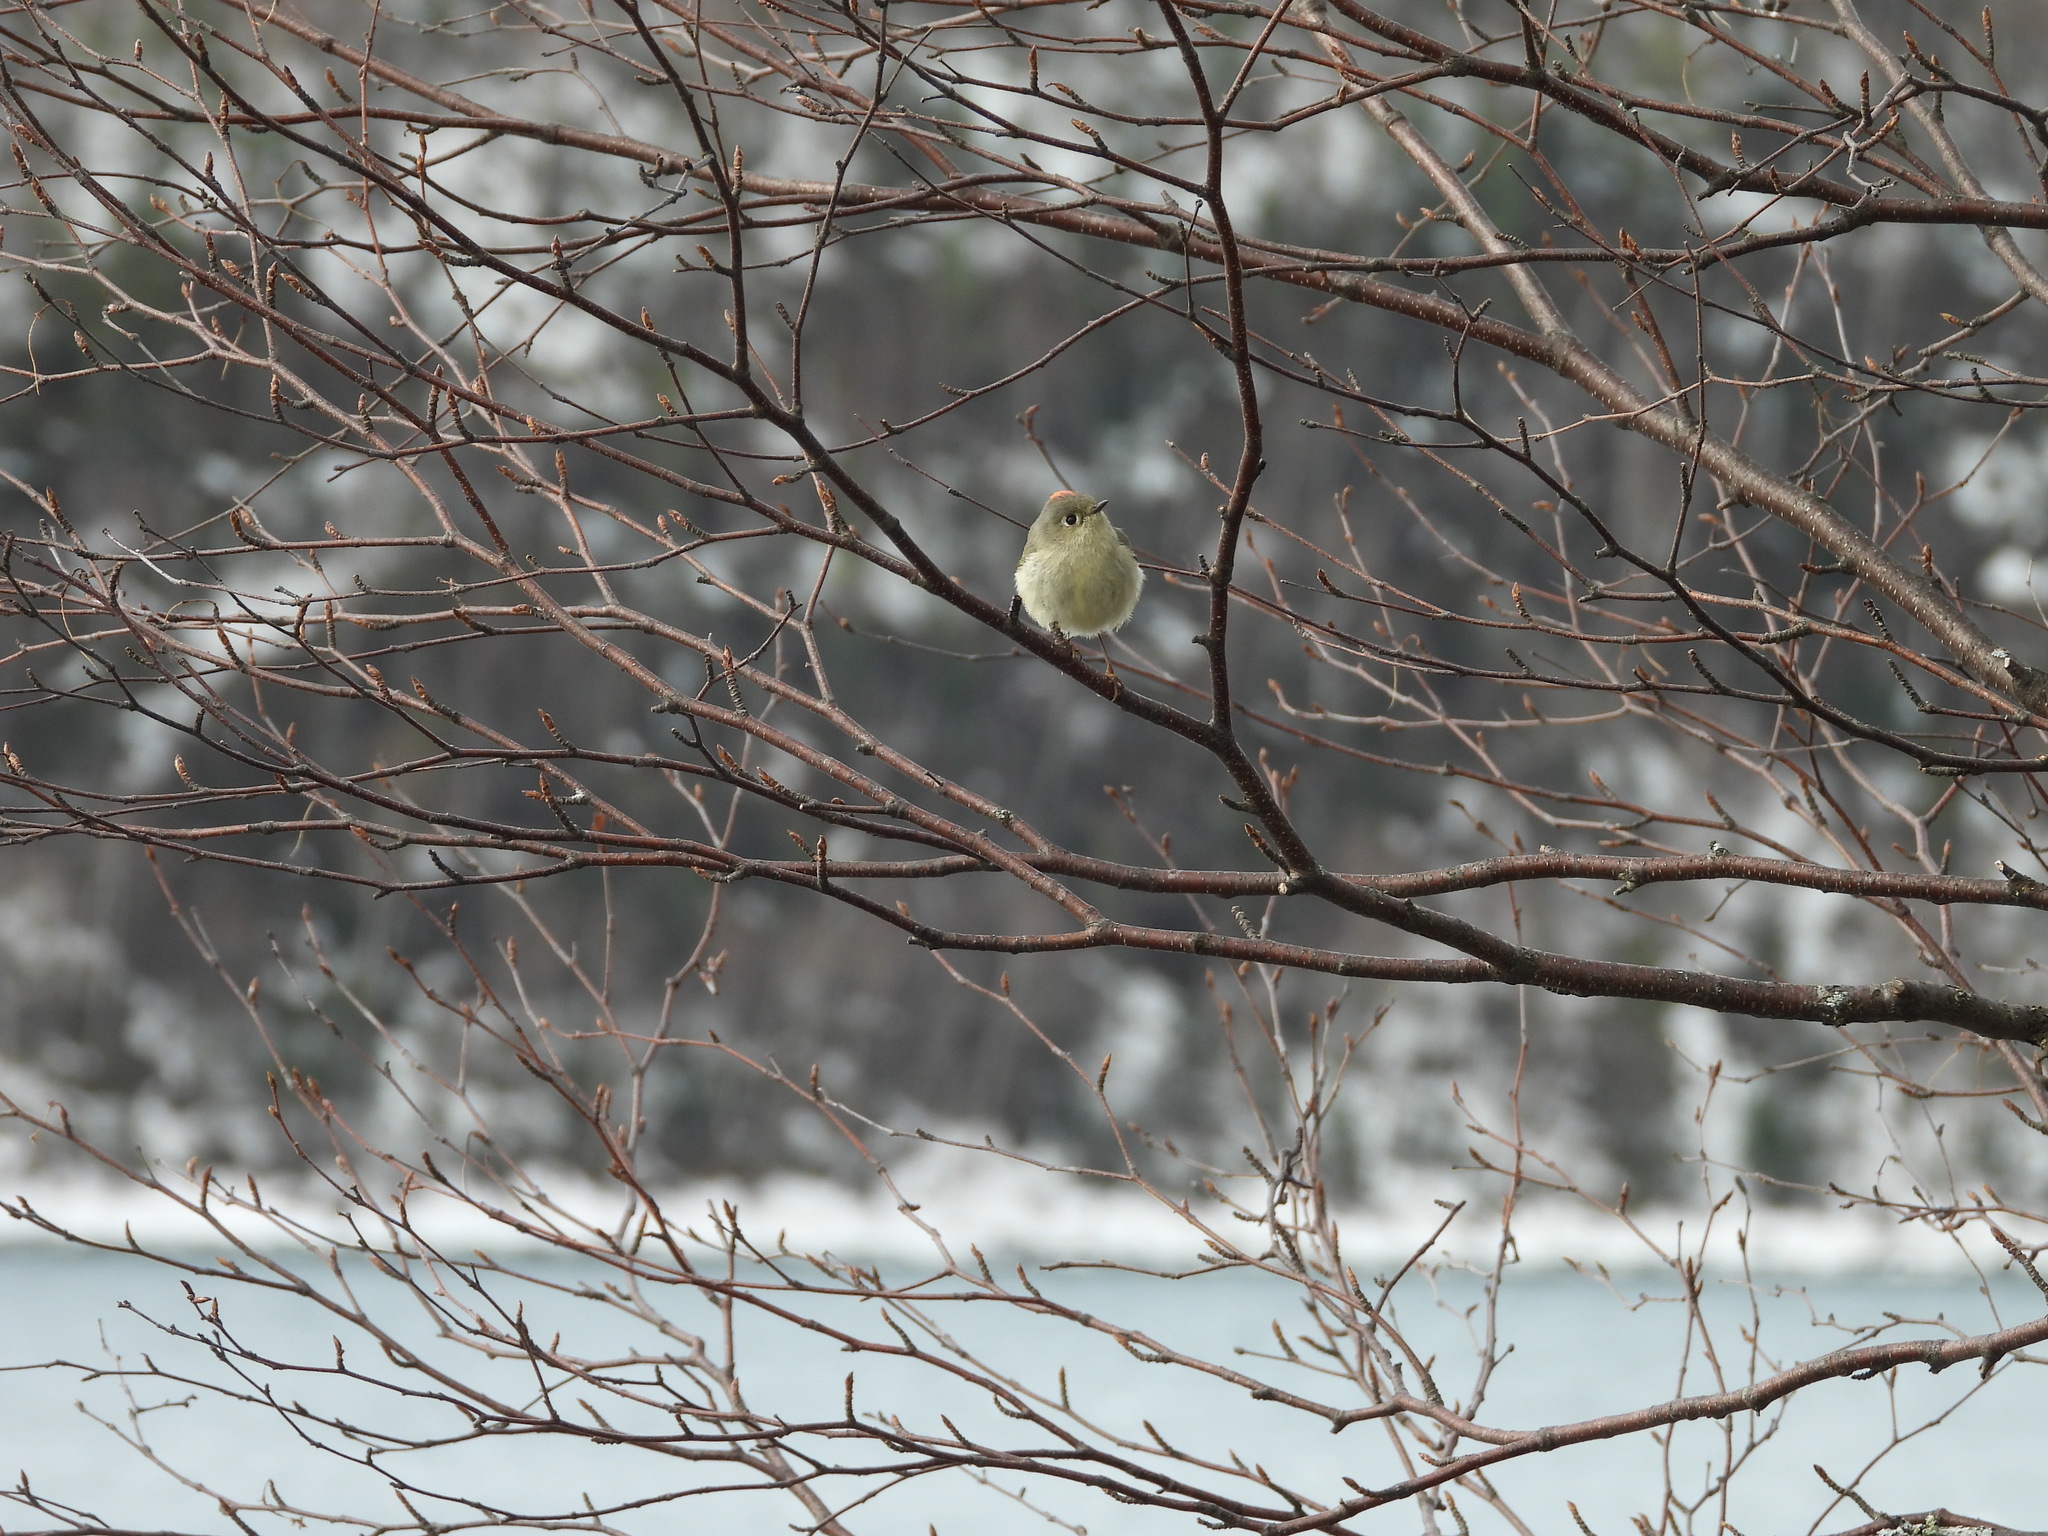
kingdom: Animalia
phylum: Chordata
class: Aves
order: Passeriformes
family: Regulidae
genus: Regulus
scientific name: Regulus calendula
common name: Ruby-crowned kinglet
